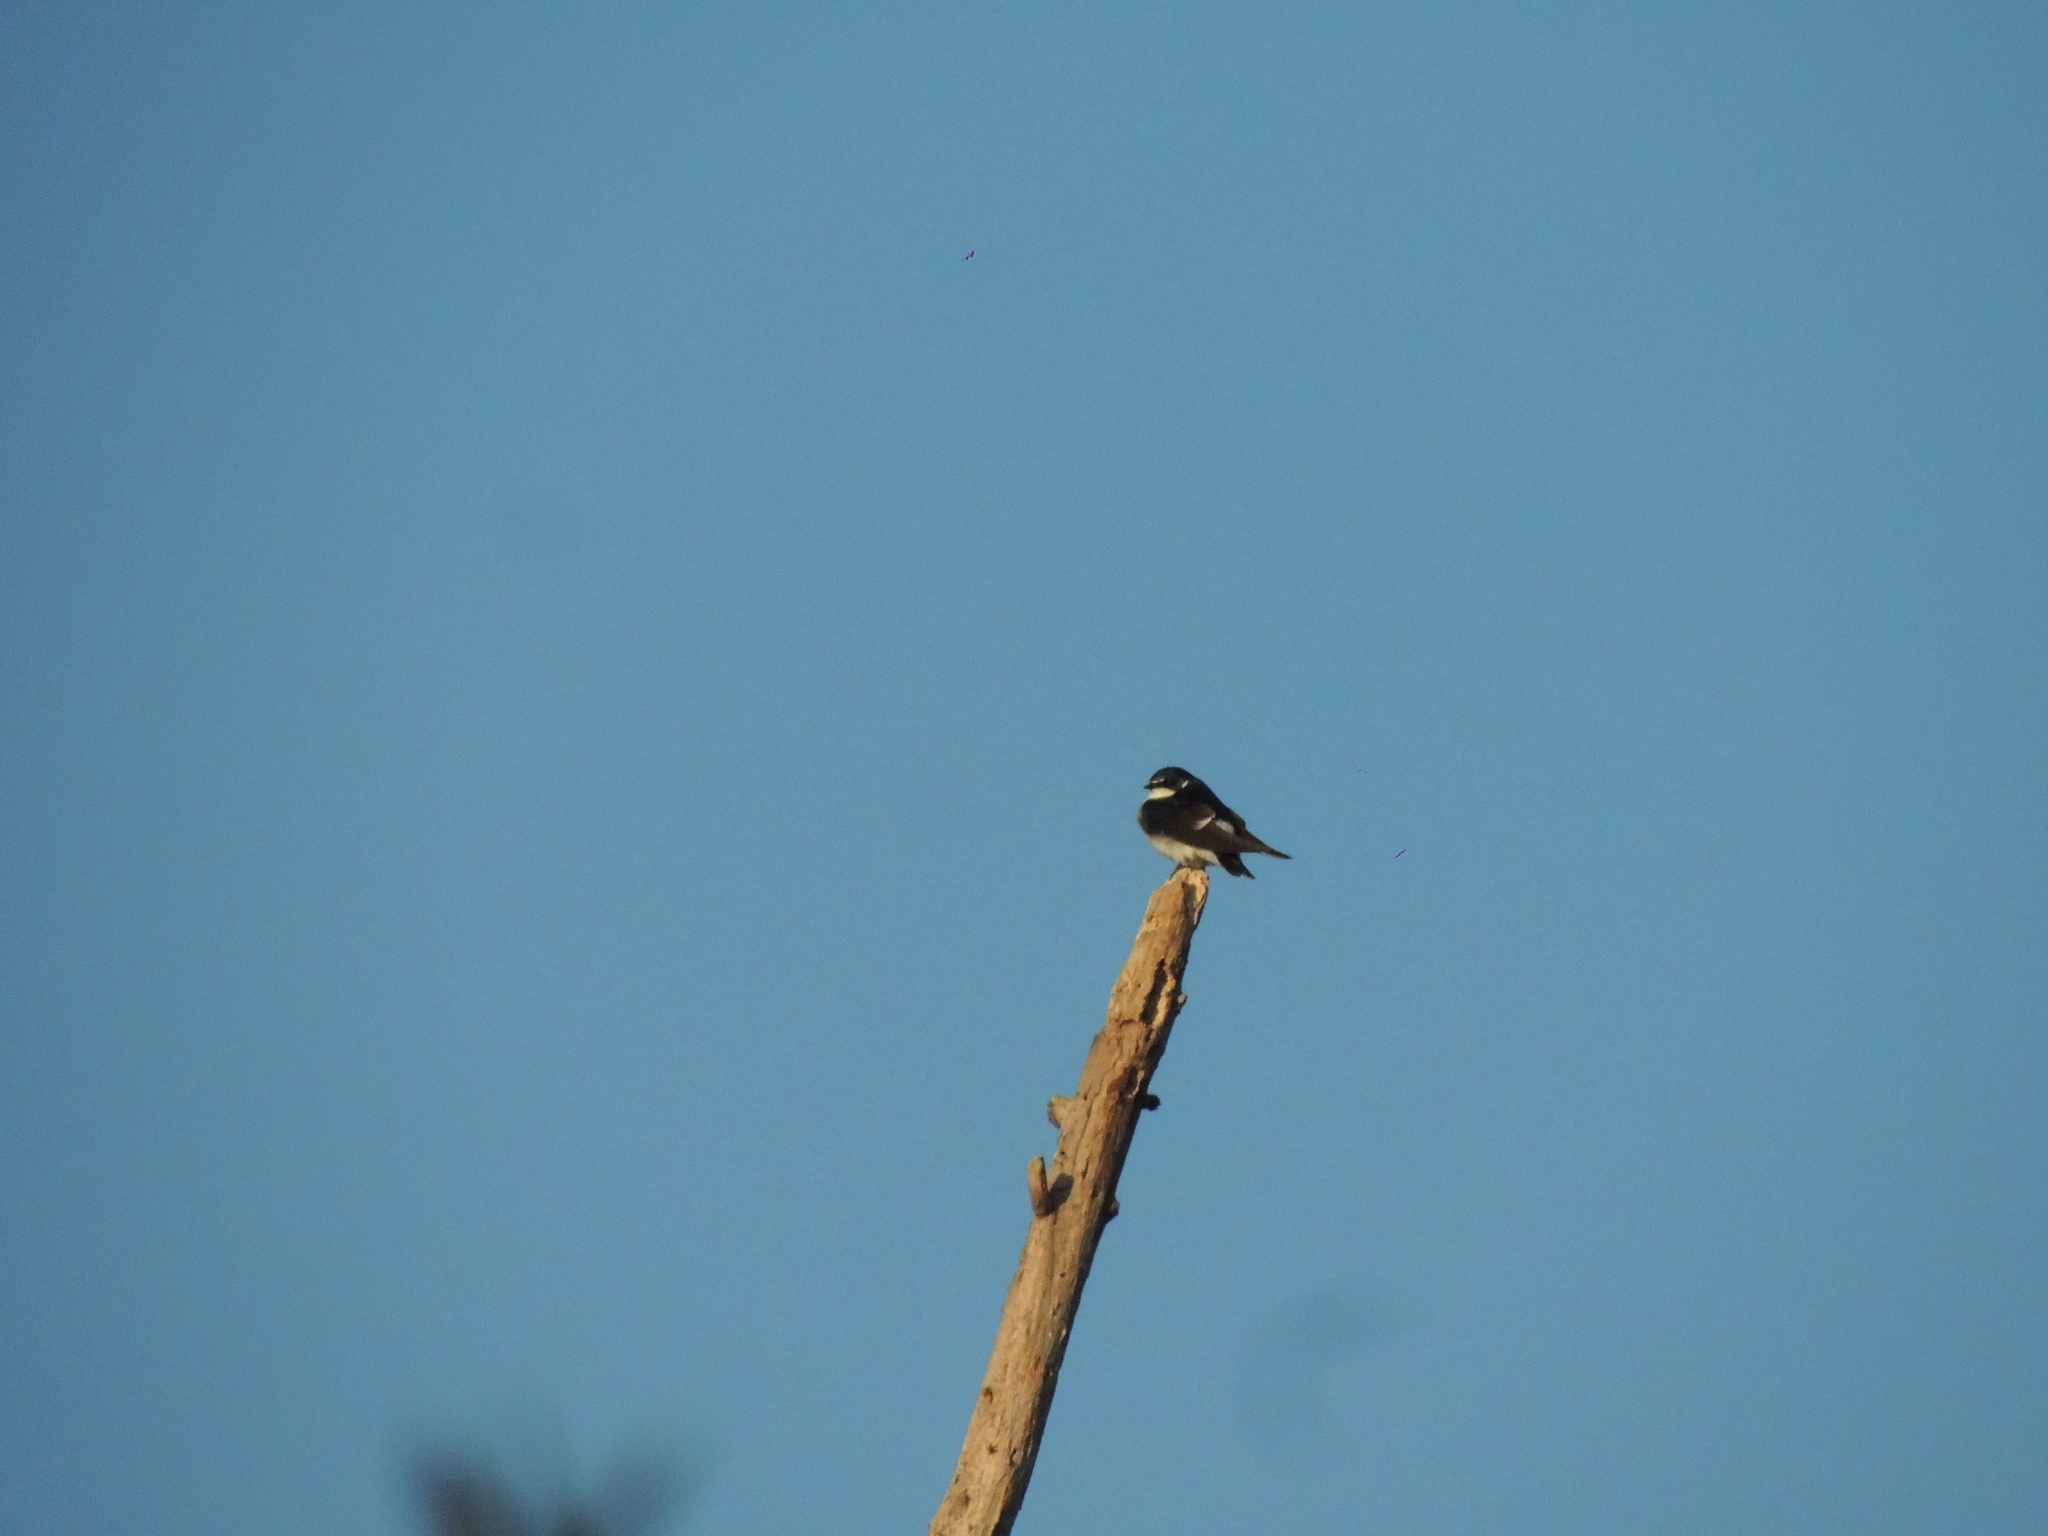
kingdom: Animalia
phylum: Chordata
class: Aves
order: Passeriformes
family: Hirundinidae
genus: Tachycineta
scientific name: Tachycineta leucorrhoa
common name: White-rumped swallow
